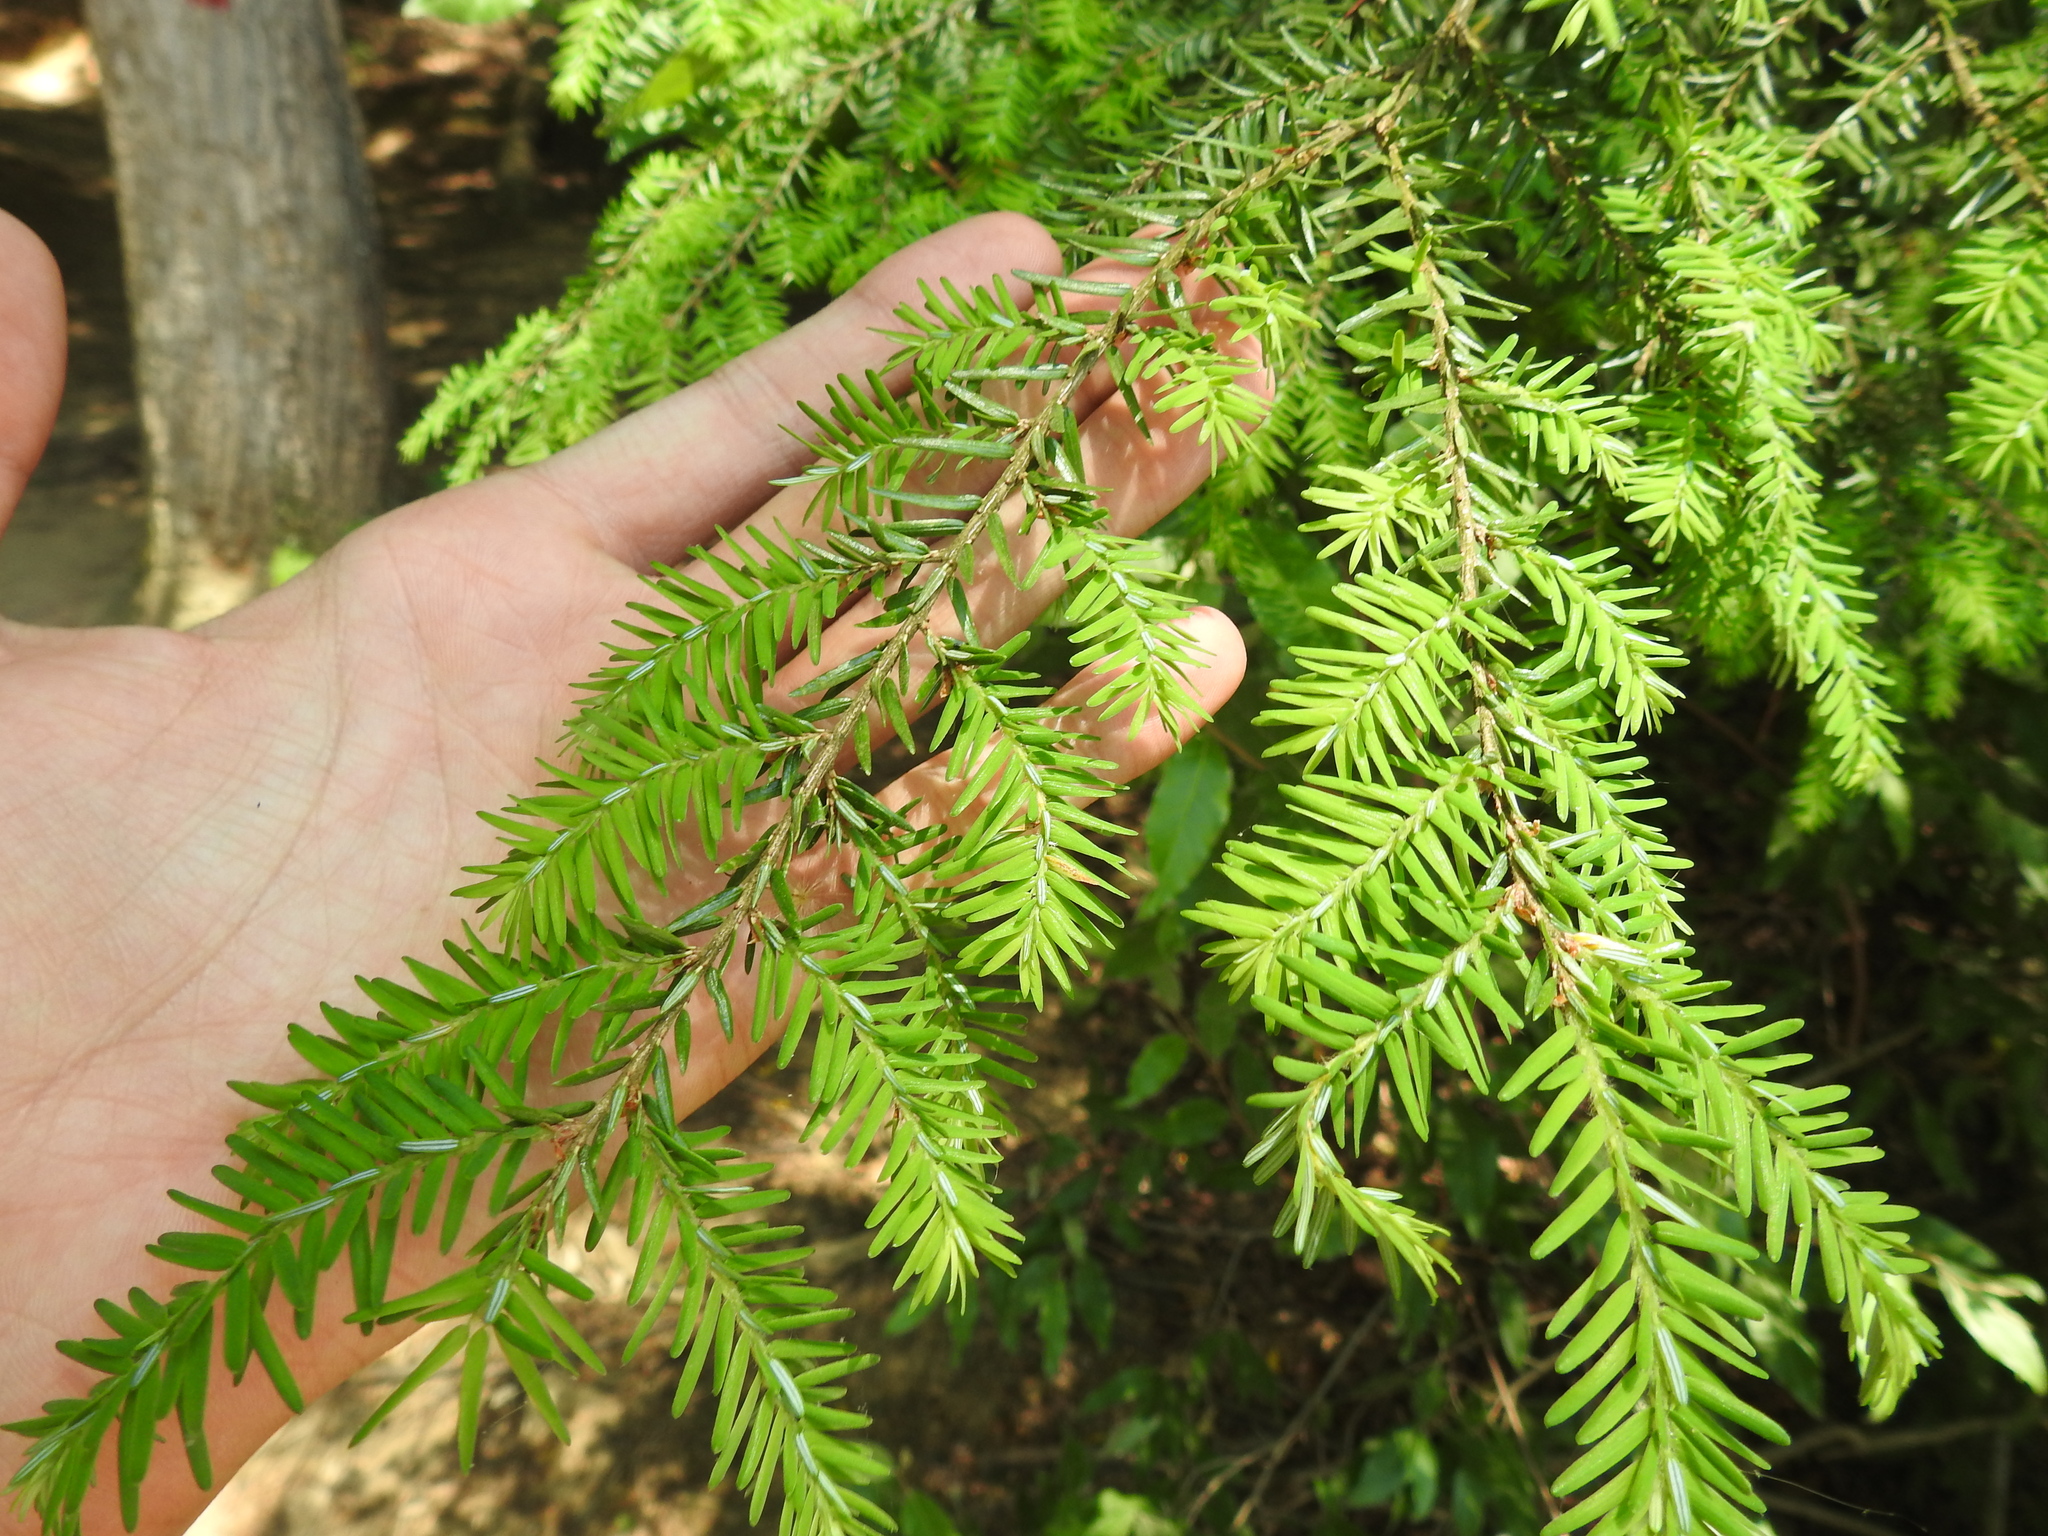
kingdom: Plantae
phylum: Tracheophyta
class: Pinopsida
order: Pinales
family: Pinaceae
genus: Tsuga
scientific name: Tsuga canadensis
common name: Eastern hemlock
